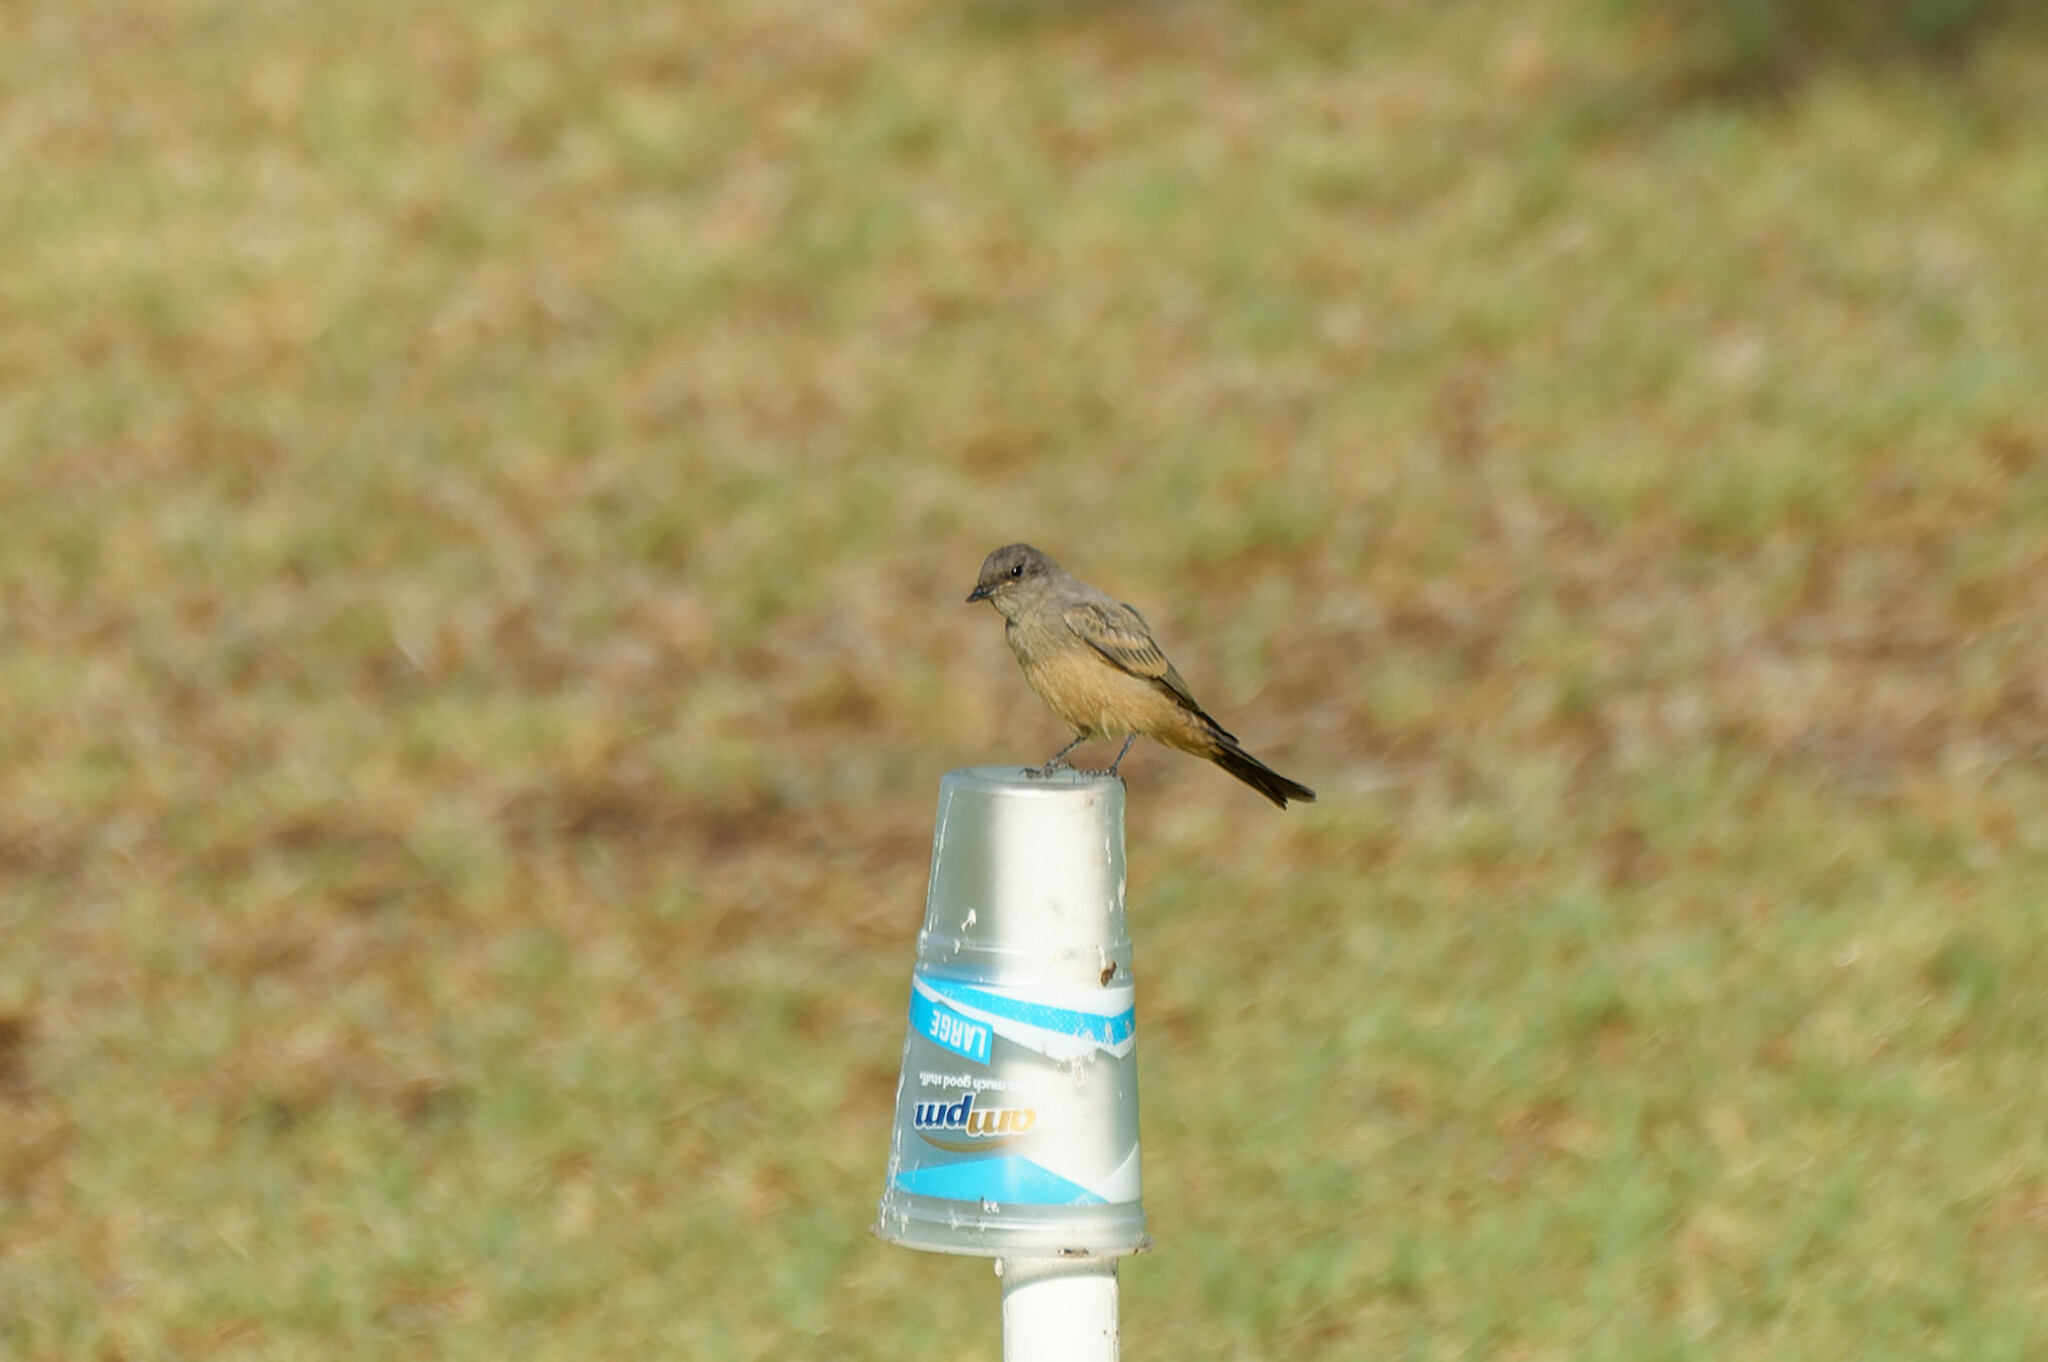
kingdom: Animalia
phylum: Chordata
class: Aves
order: Passeriformes
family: Tyrannidae
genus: Sayornis
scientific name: Sayornis saya
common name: Say's phoebe
